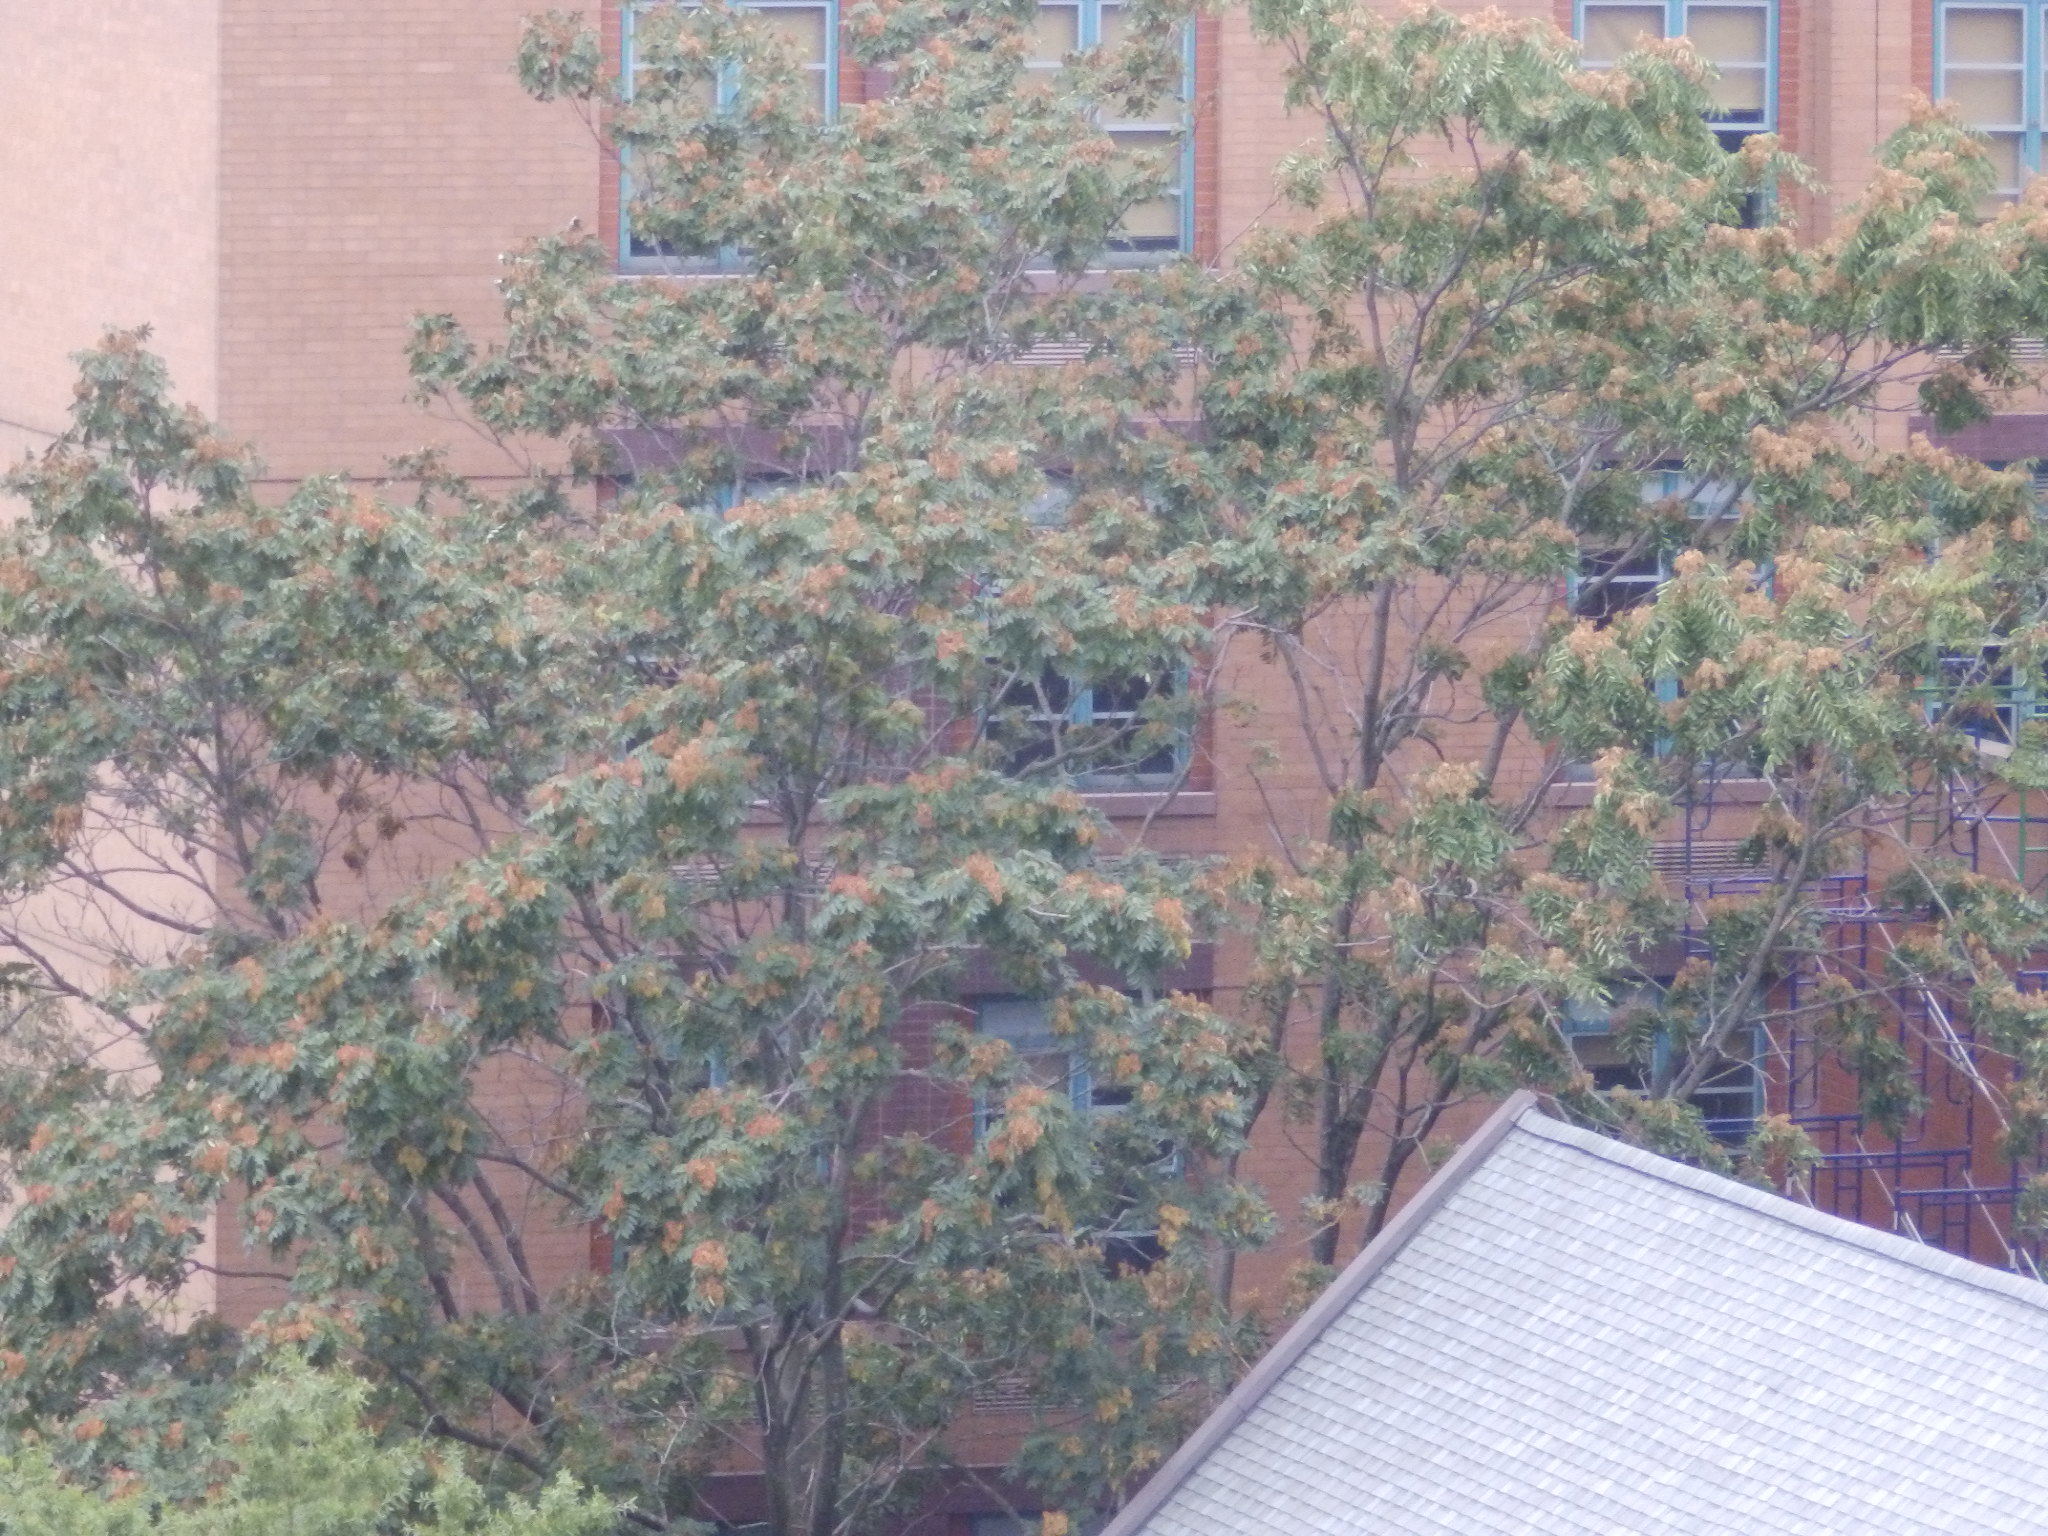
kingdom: Plantae
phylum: Tracheophyta
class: Magnoliopsida
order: Sapindales
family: Simaroubaceae
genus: Ailanthus
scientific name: Ailanthus altissima
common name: Tree-of-heaven
